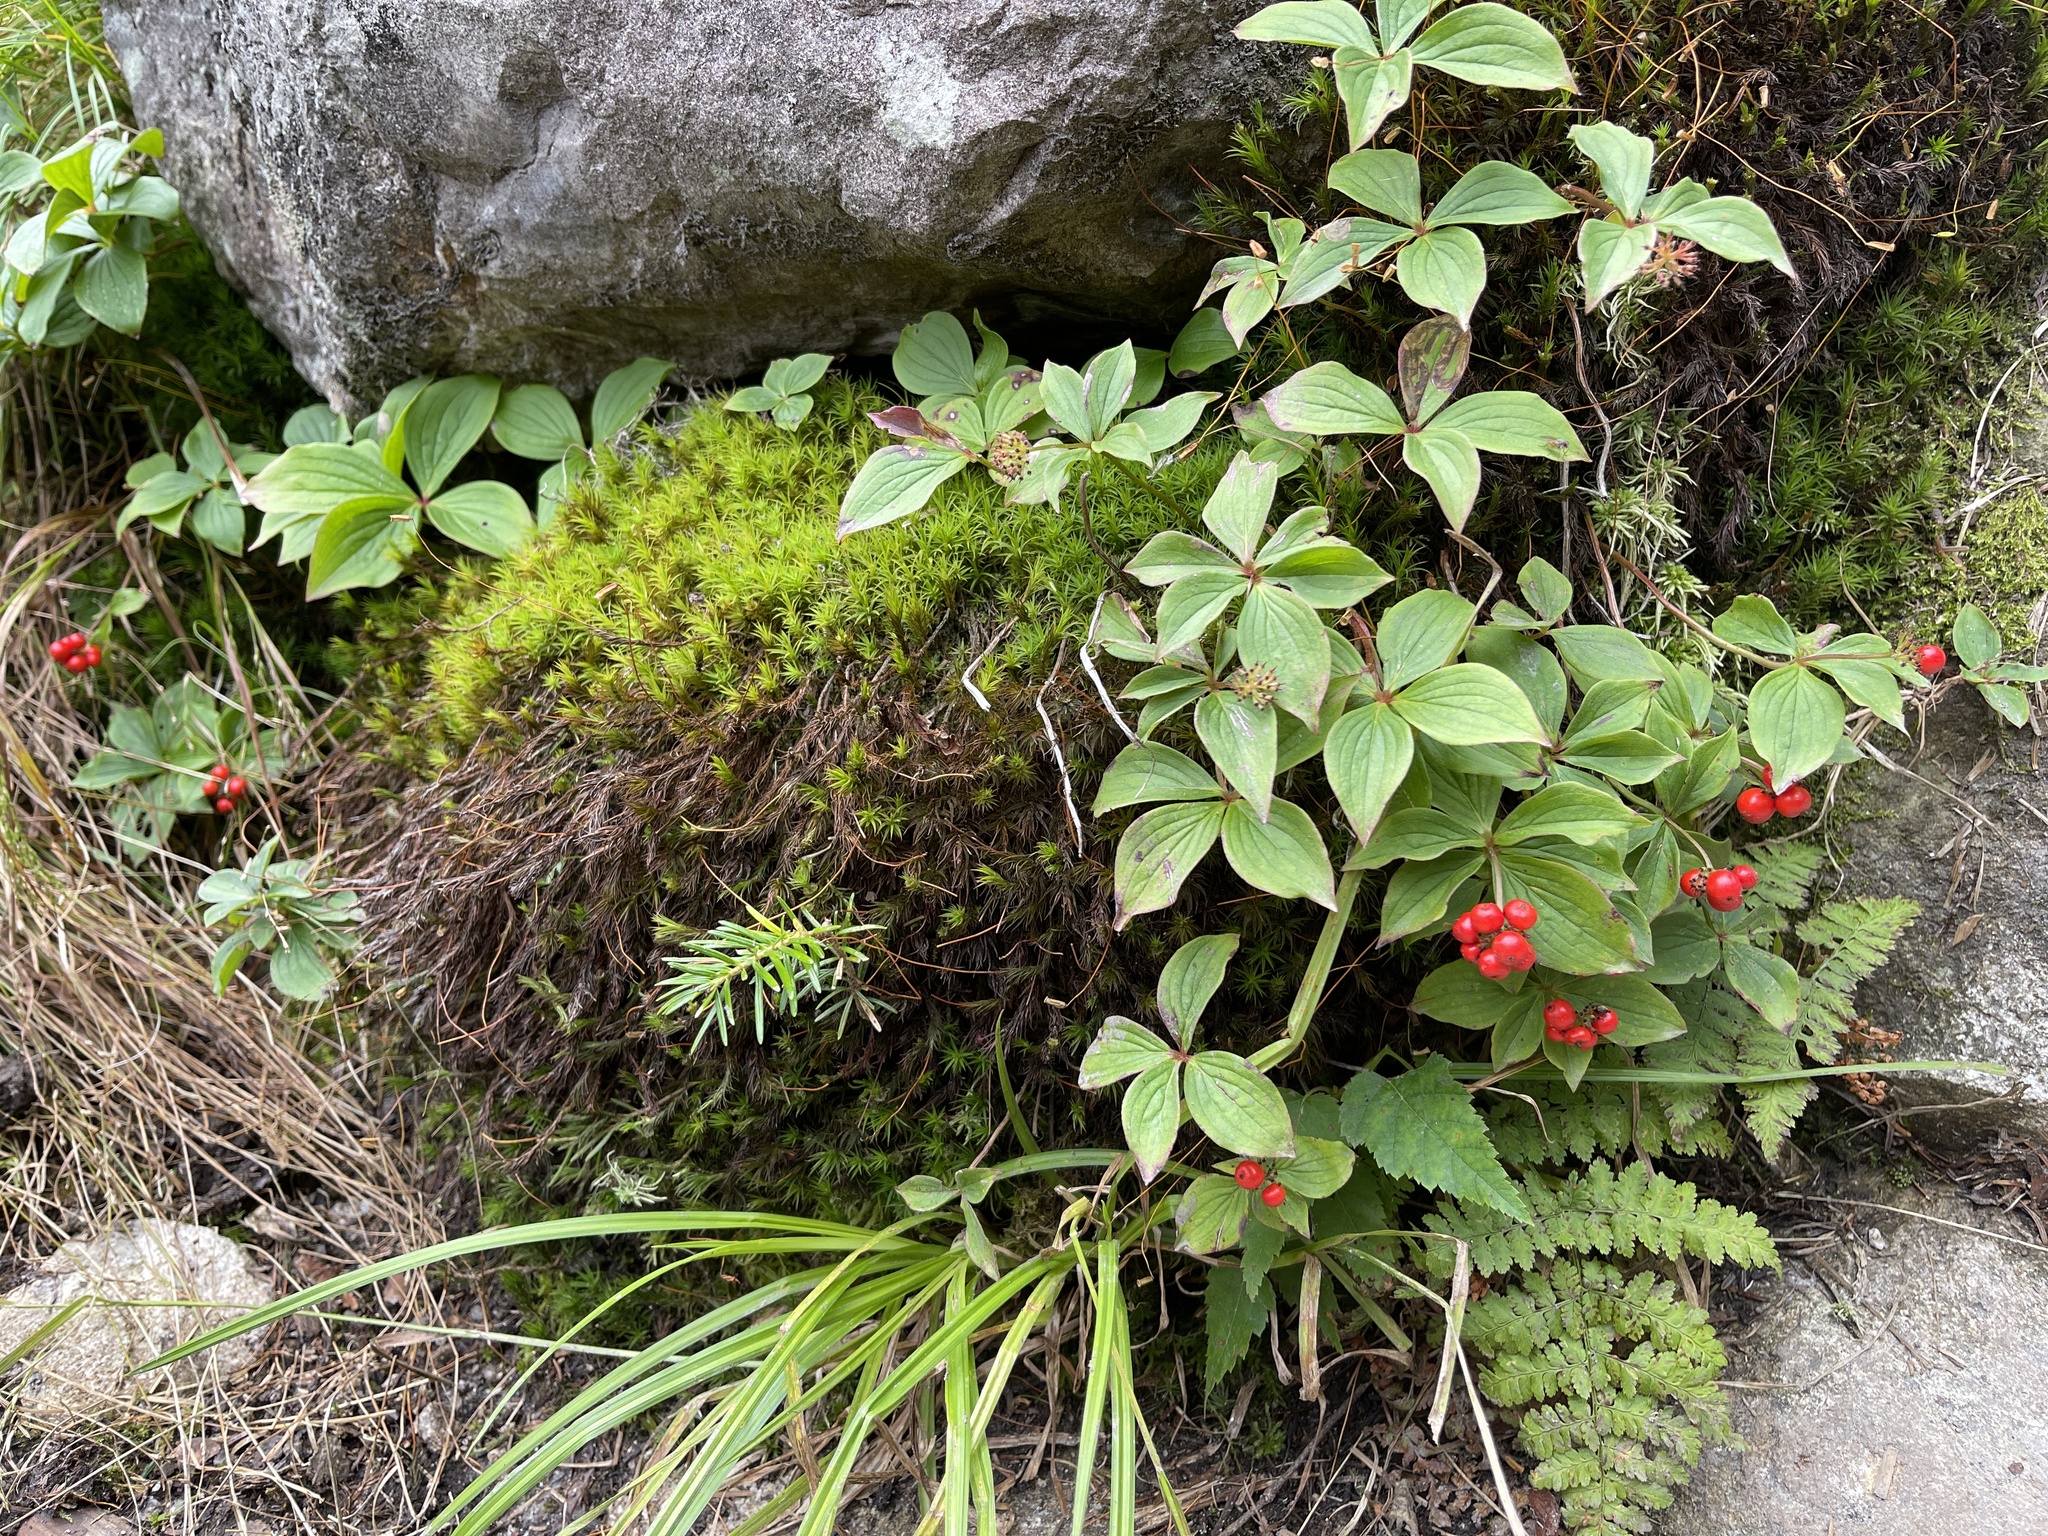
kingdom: Plantae
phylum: Tracheophyta
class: Magnoliopsida
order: Cornales
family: Cornaceae
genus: Cornus
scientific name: Cornus canadensis
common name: Creeping dogwood
